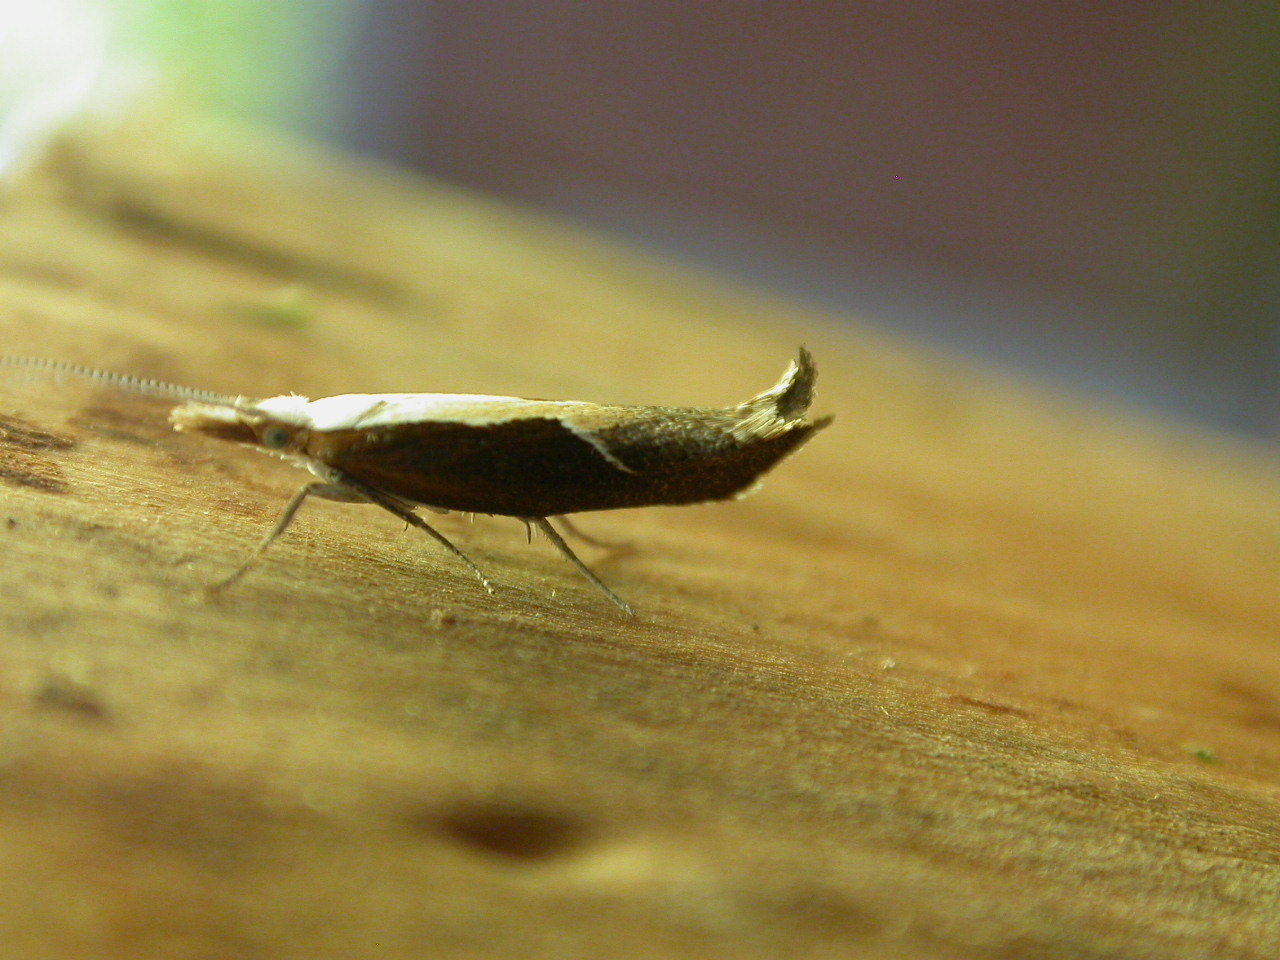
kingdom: Animalia
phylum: Arthropoda
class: Insecta
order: Lepidoptera
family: Ypsolophidae
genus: Ypsolopha
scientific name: Ypsolopha dentella
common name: Honeysuckle moth
